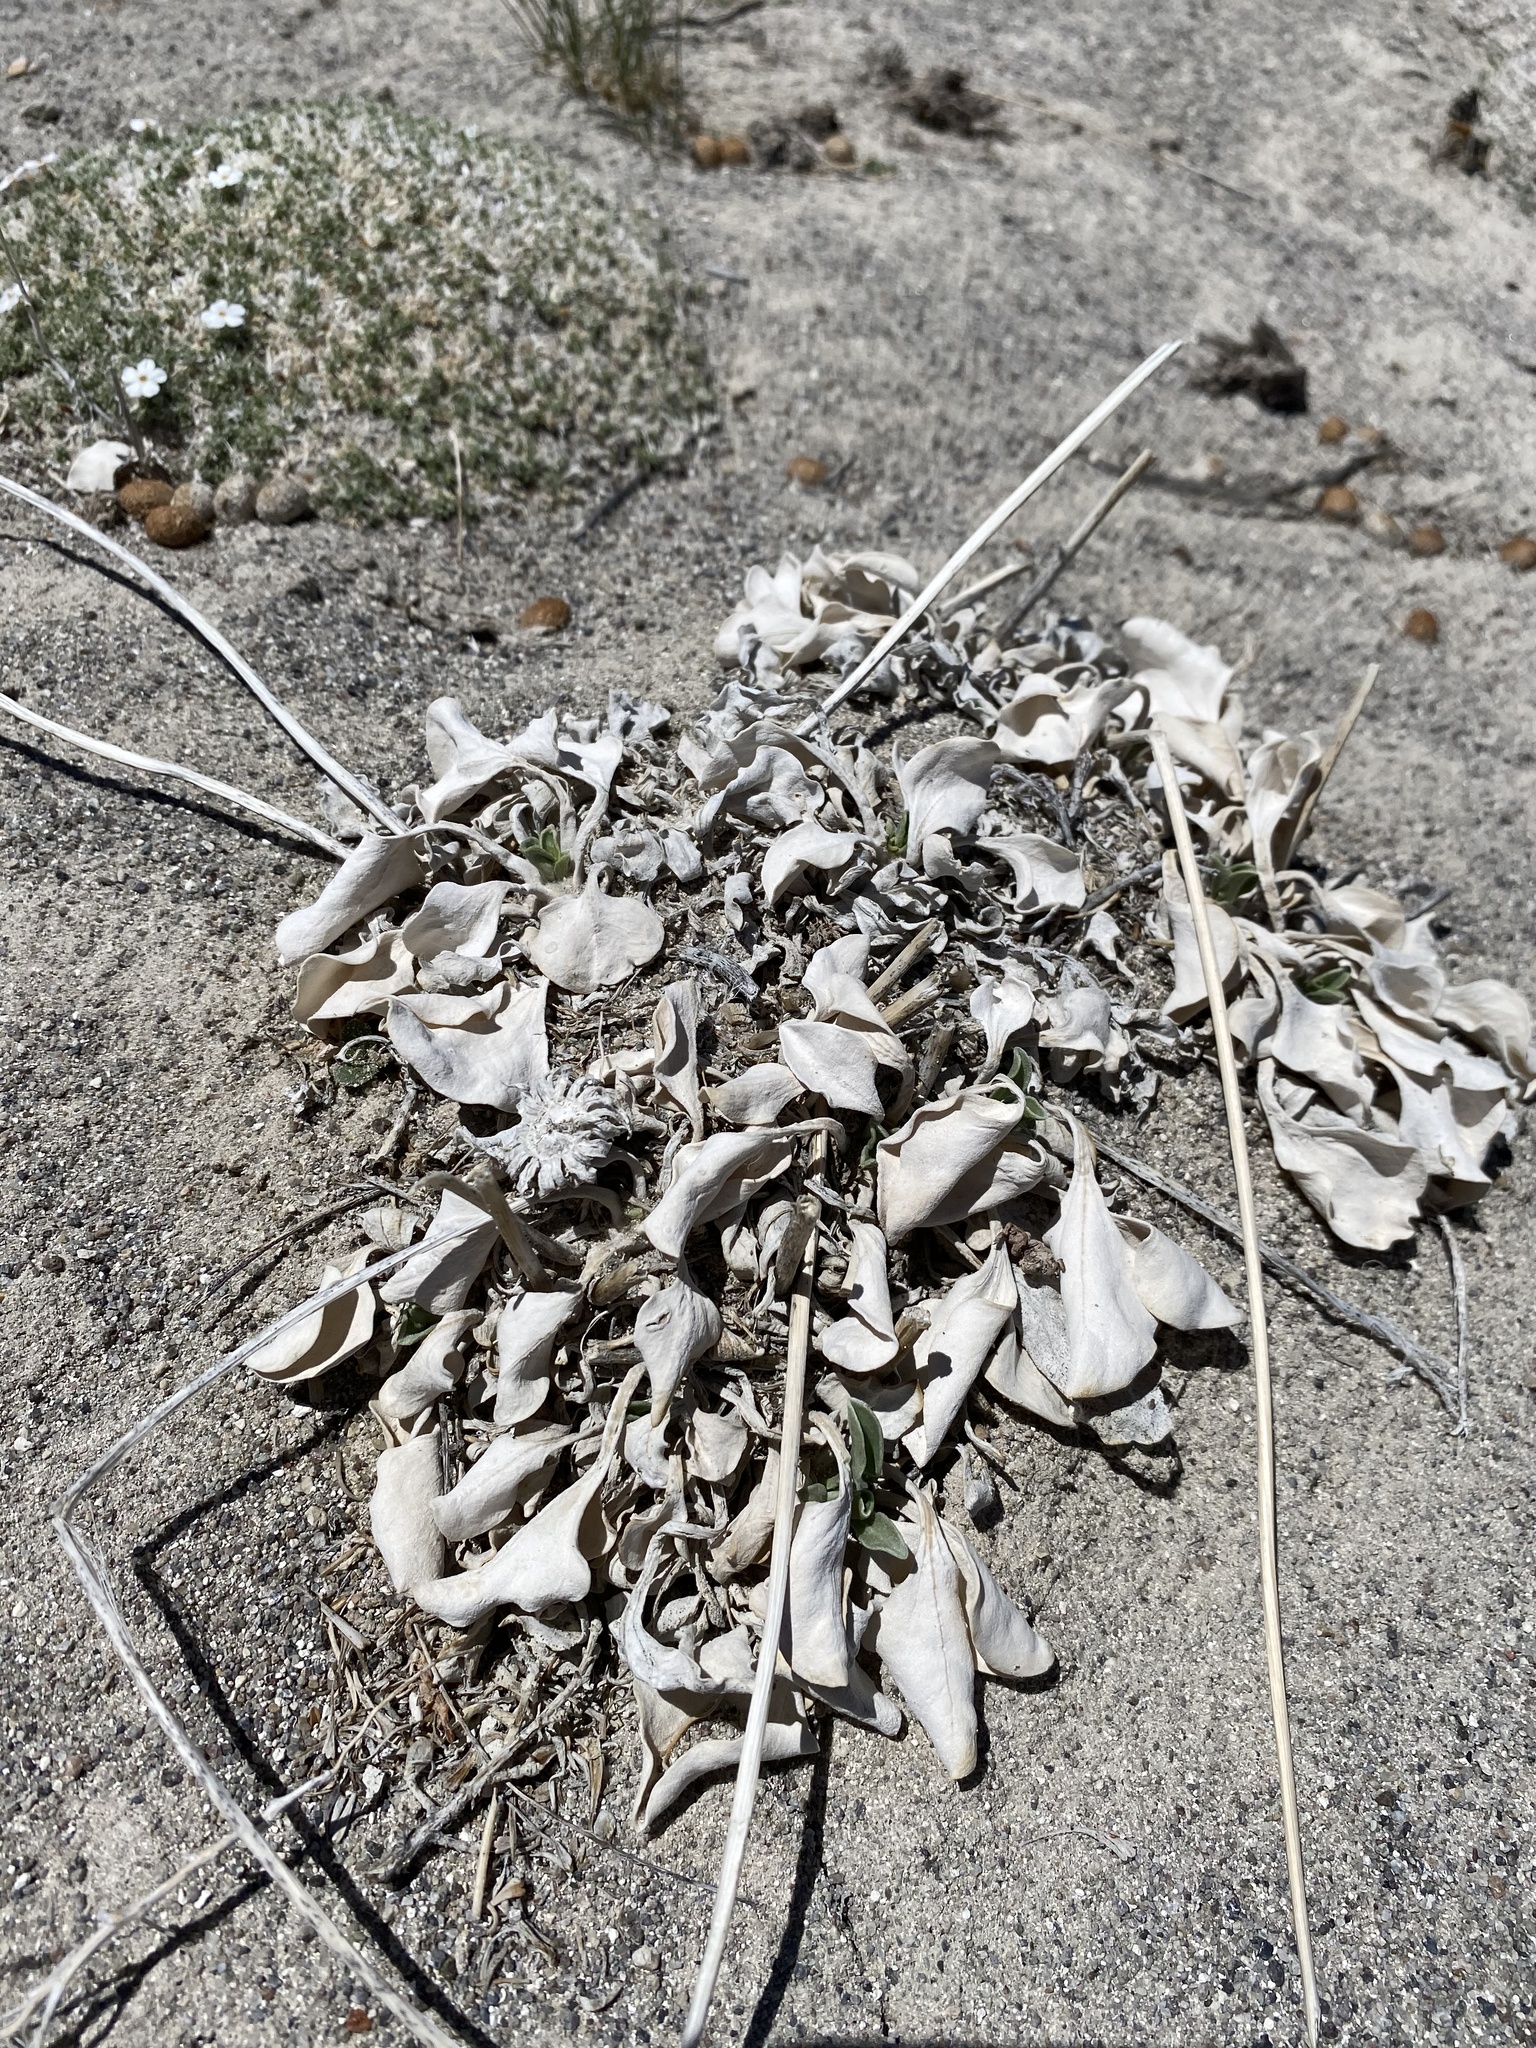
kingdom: Plantae
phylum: Tracheophyta
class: Magnoliopsida
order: Asterales
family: Asteraceae
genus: Enceliopsis
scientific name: Enceliopsis nudicaulis
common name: Naked-stem daisy
